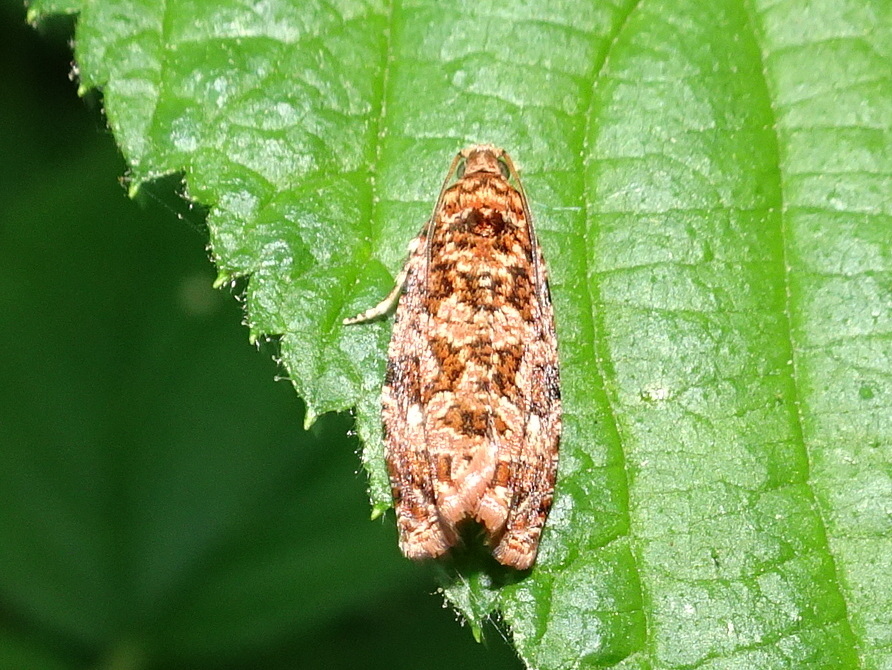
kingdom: Animalia
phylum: Arthropoda
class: Insecta
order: Lepidoptera
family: Tortricidae
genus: Phaecasiophora
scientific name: Phaecasiophora niveiguttana
